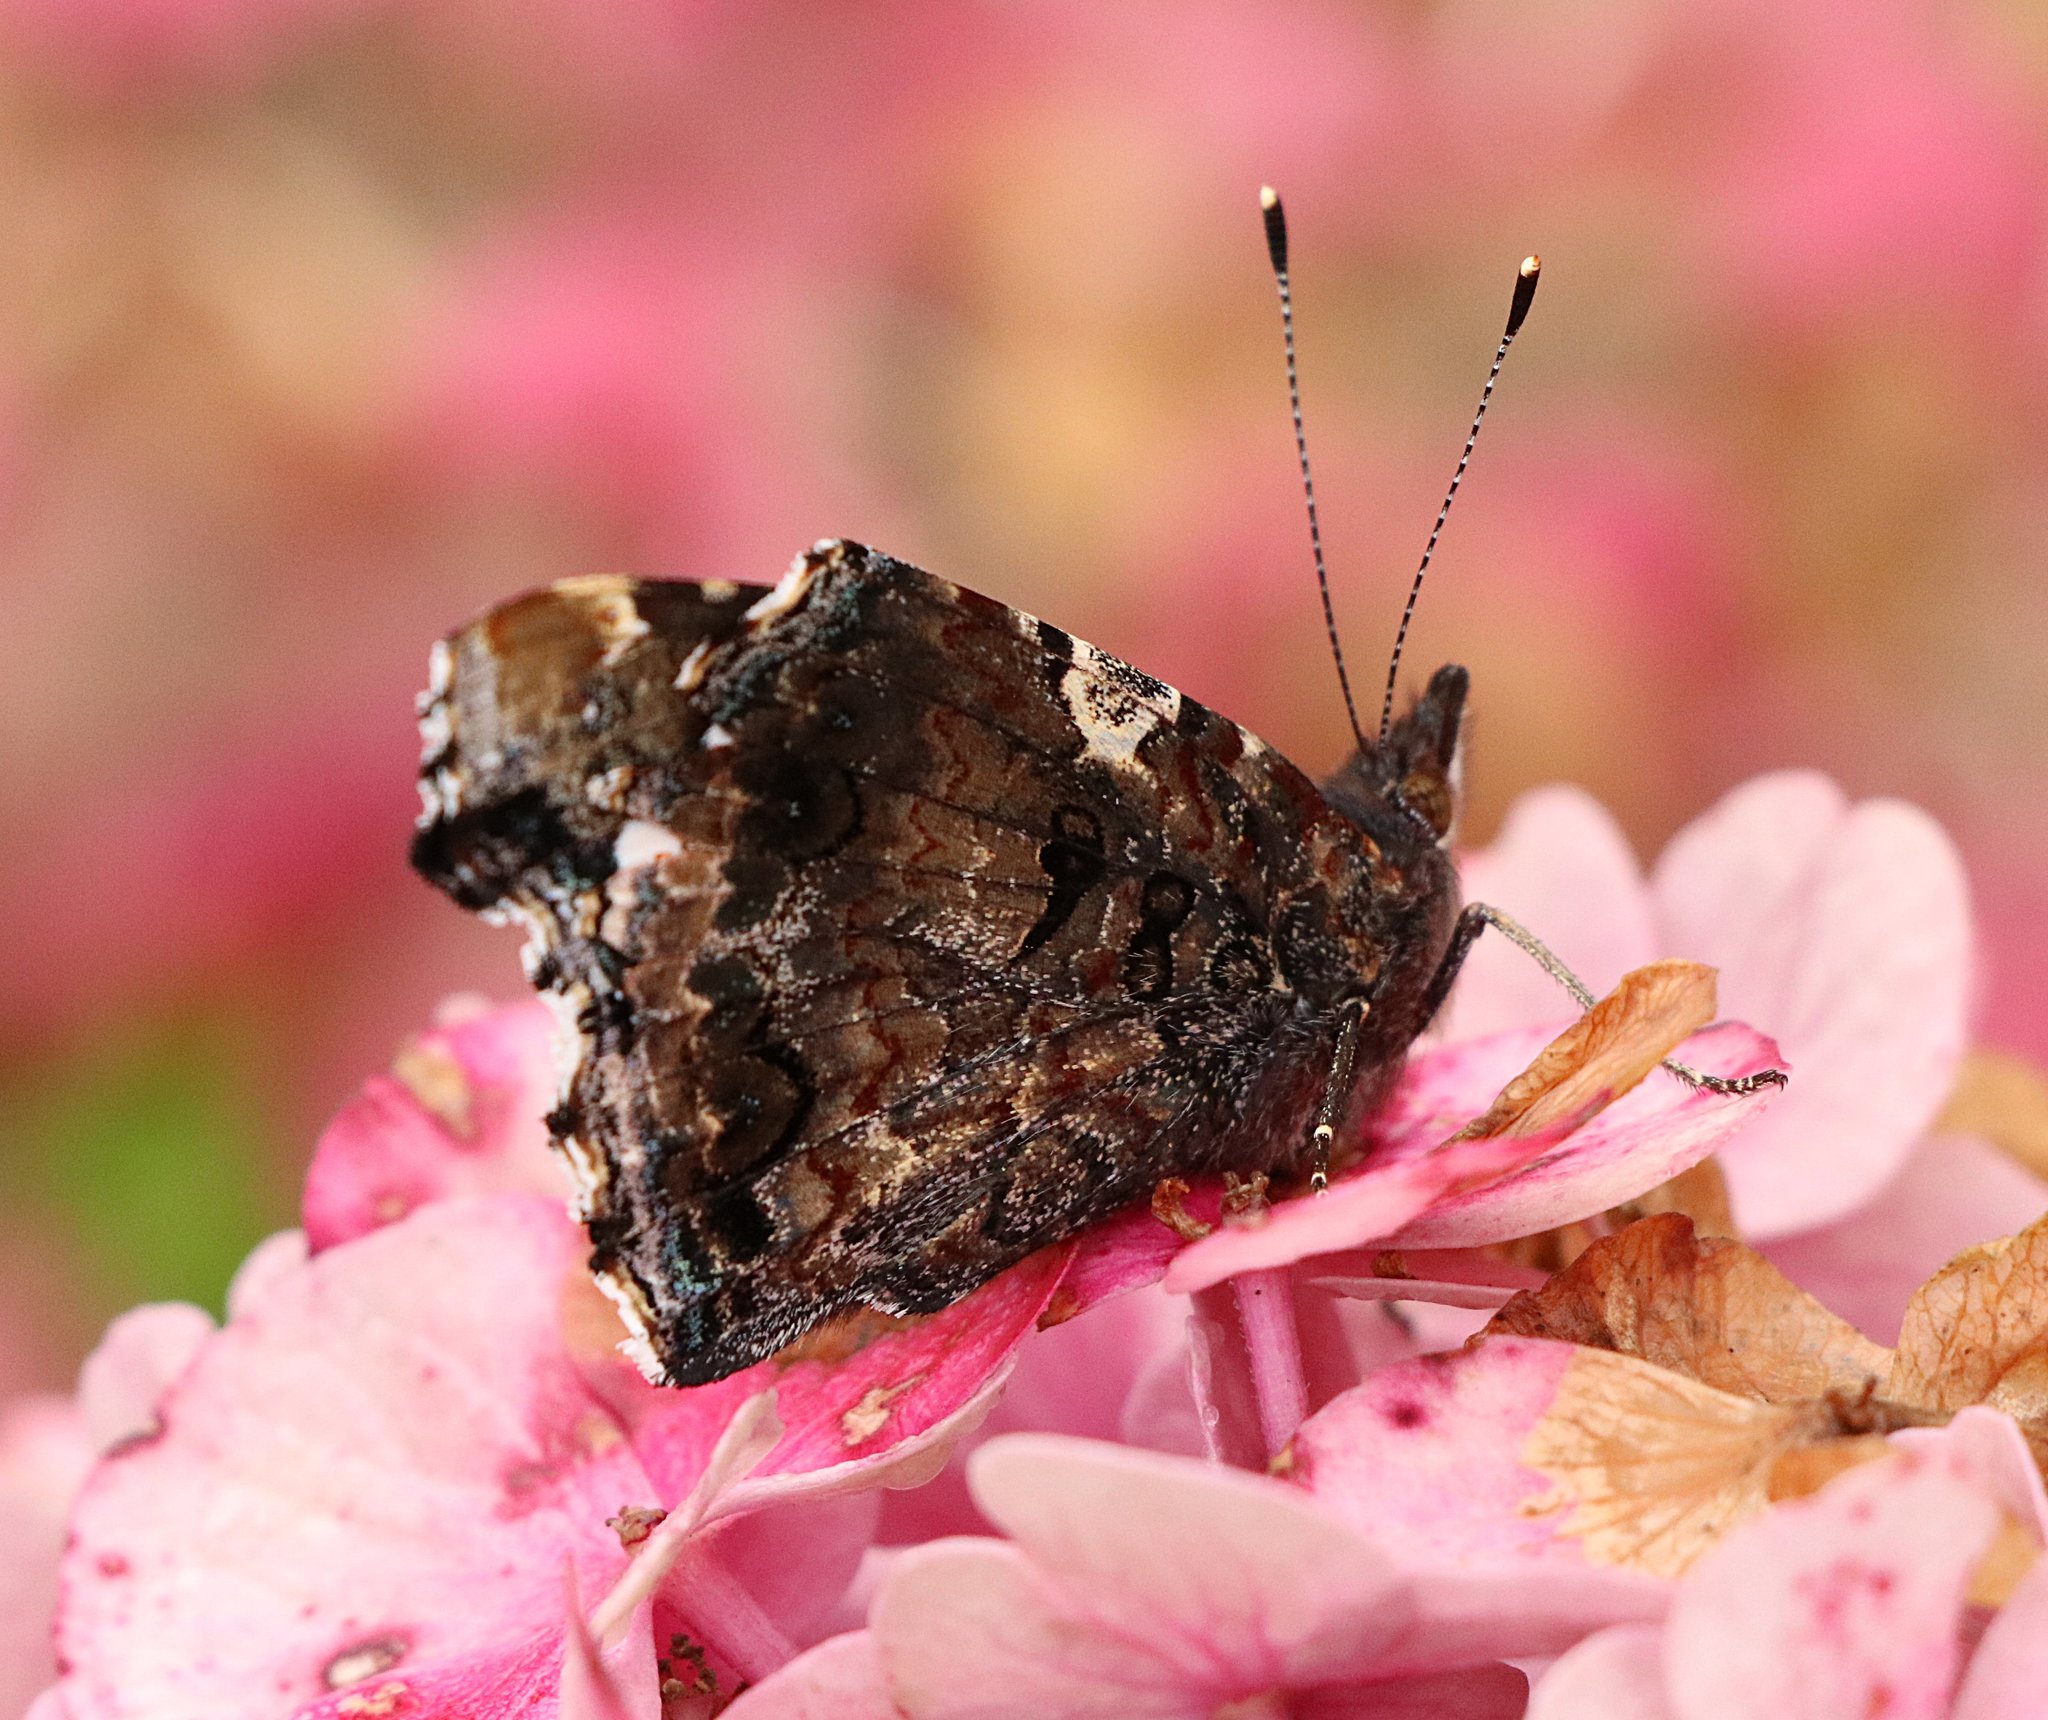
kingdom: Animalia
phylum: Arthropoda
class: Insecta
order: Lepidoptera
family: Nymphalidae
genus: Vanessa
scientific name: Vanessa atalanta
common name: Red admiral
